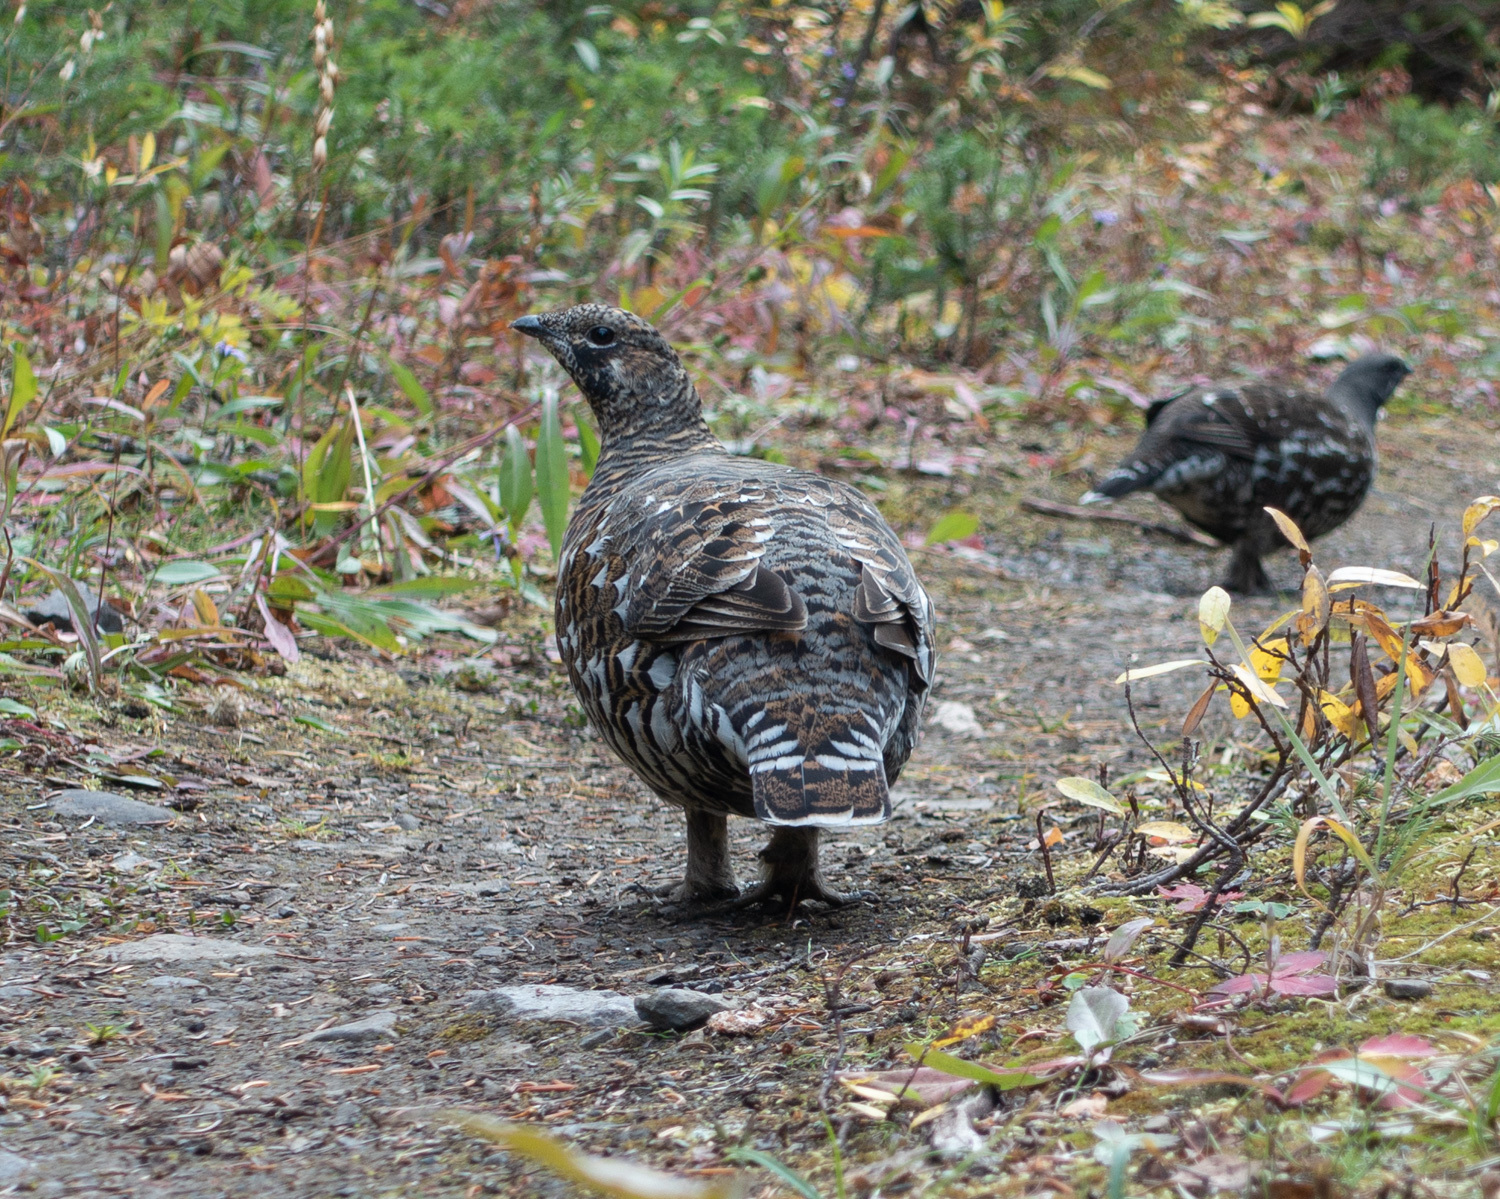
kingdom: Animalia
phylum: Chordata
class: Aves
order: Galliformes
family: Phasianidae
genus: Canachites
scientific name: Canachites canadensis
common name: Spruce grouse
